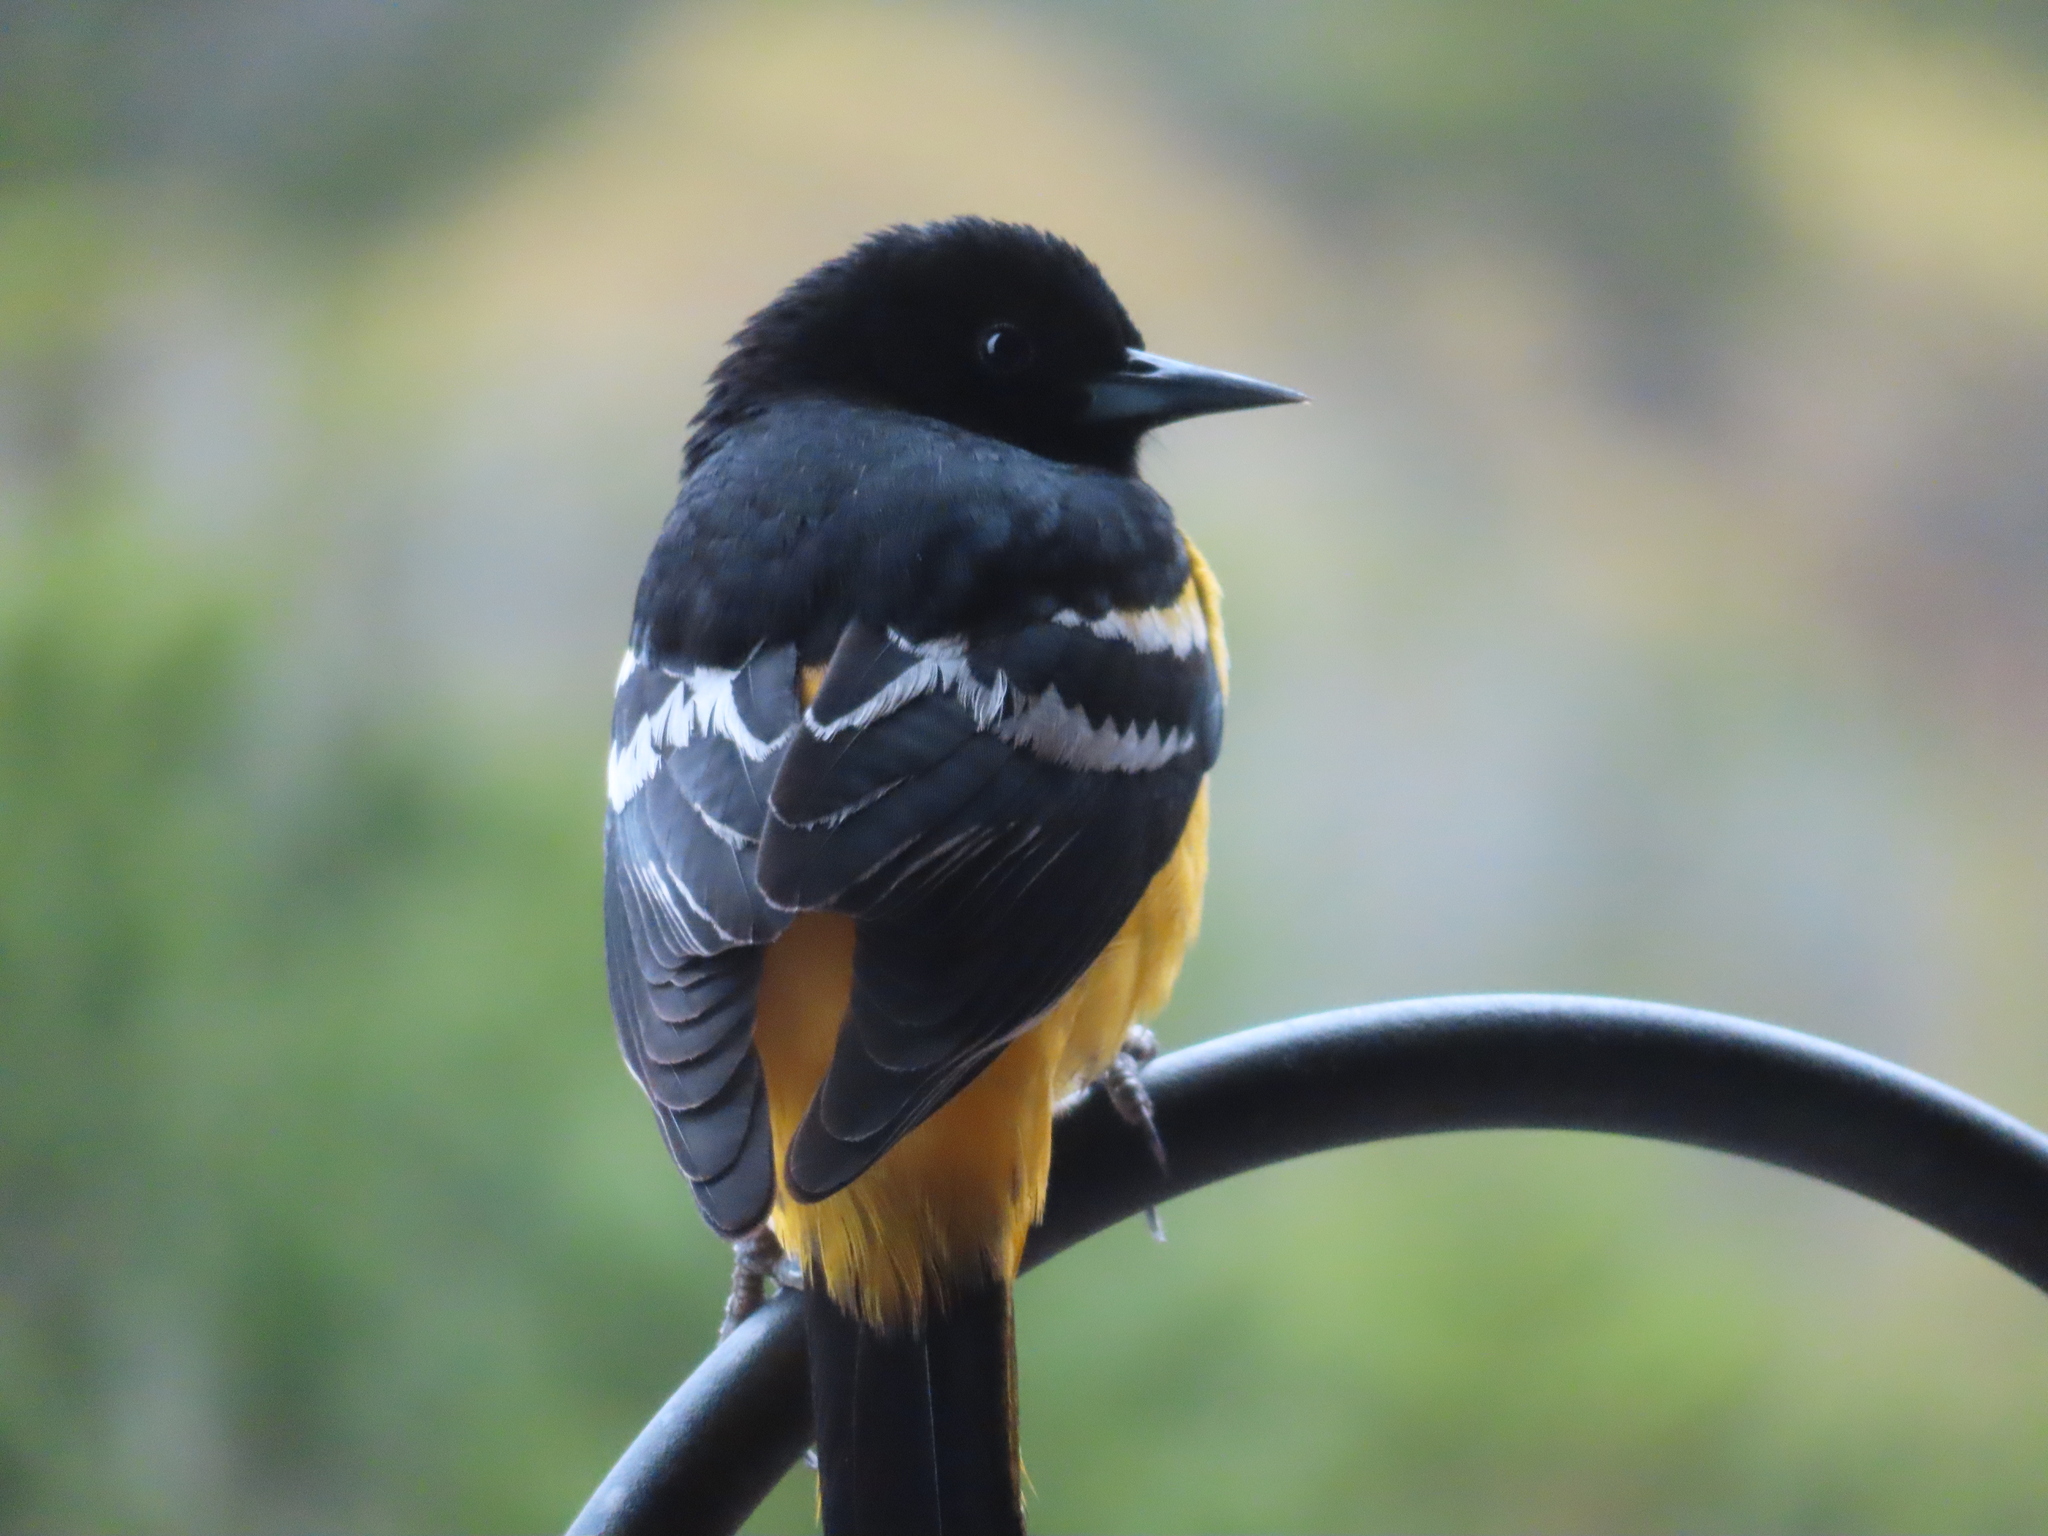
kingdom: Animalia
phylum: Chordata
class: Aves
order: Passeriformes
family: Icteridae
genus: Icterus
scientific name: Icterus parisorum
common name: Scott's oriole
